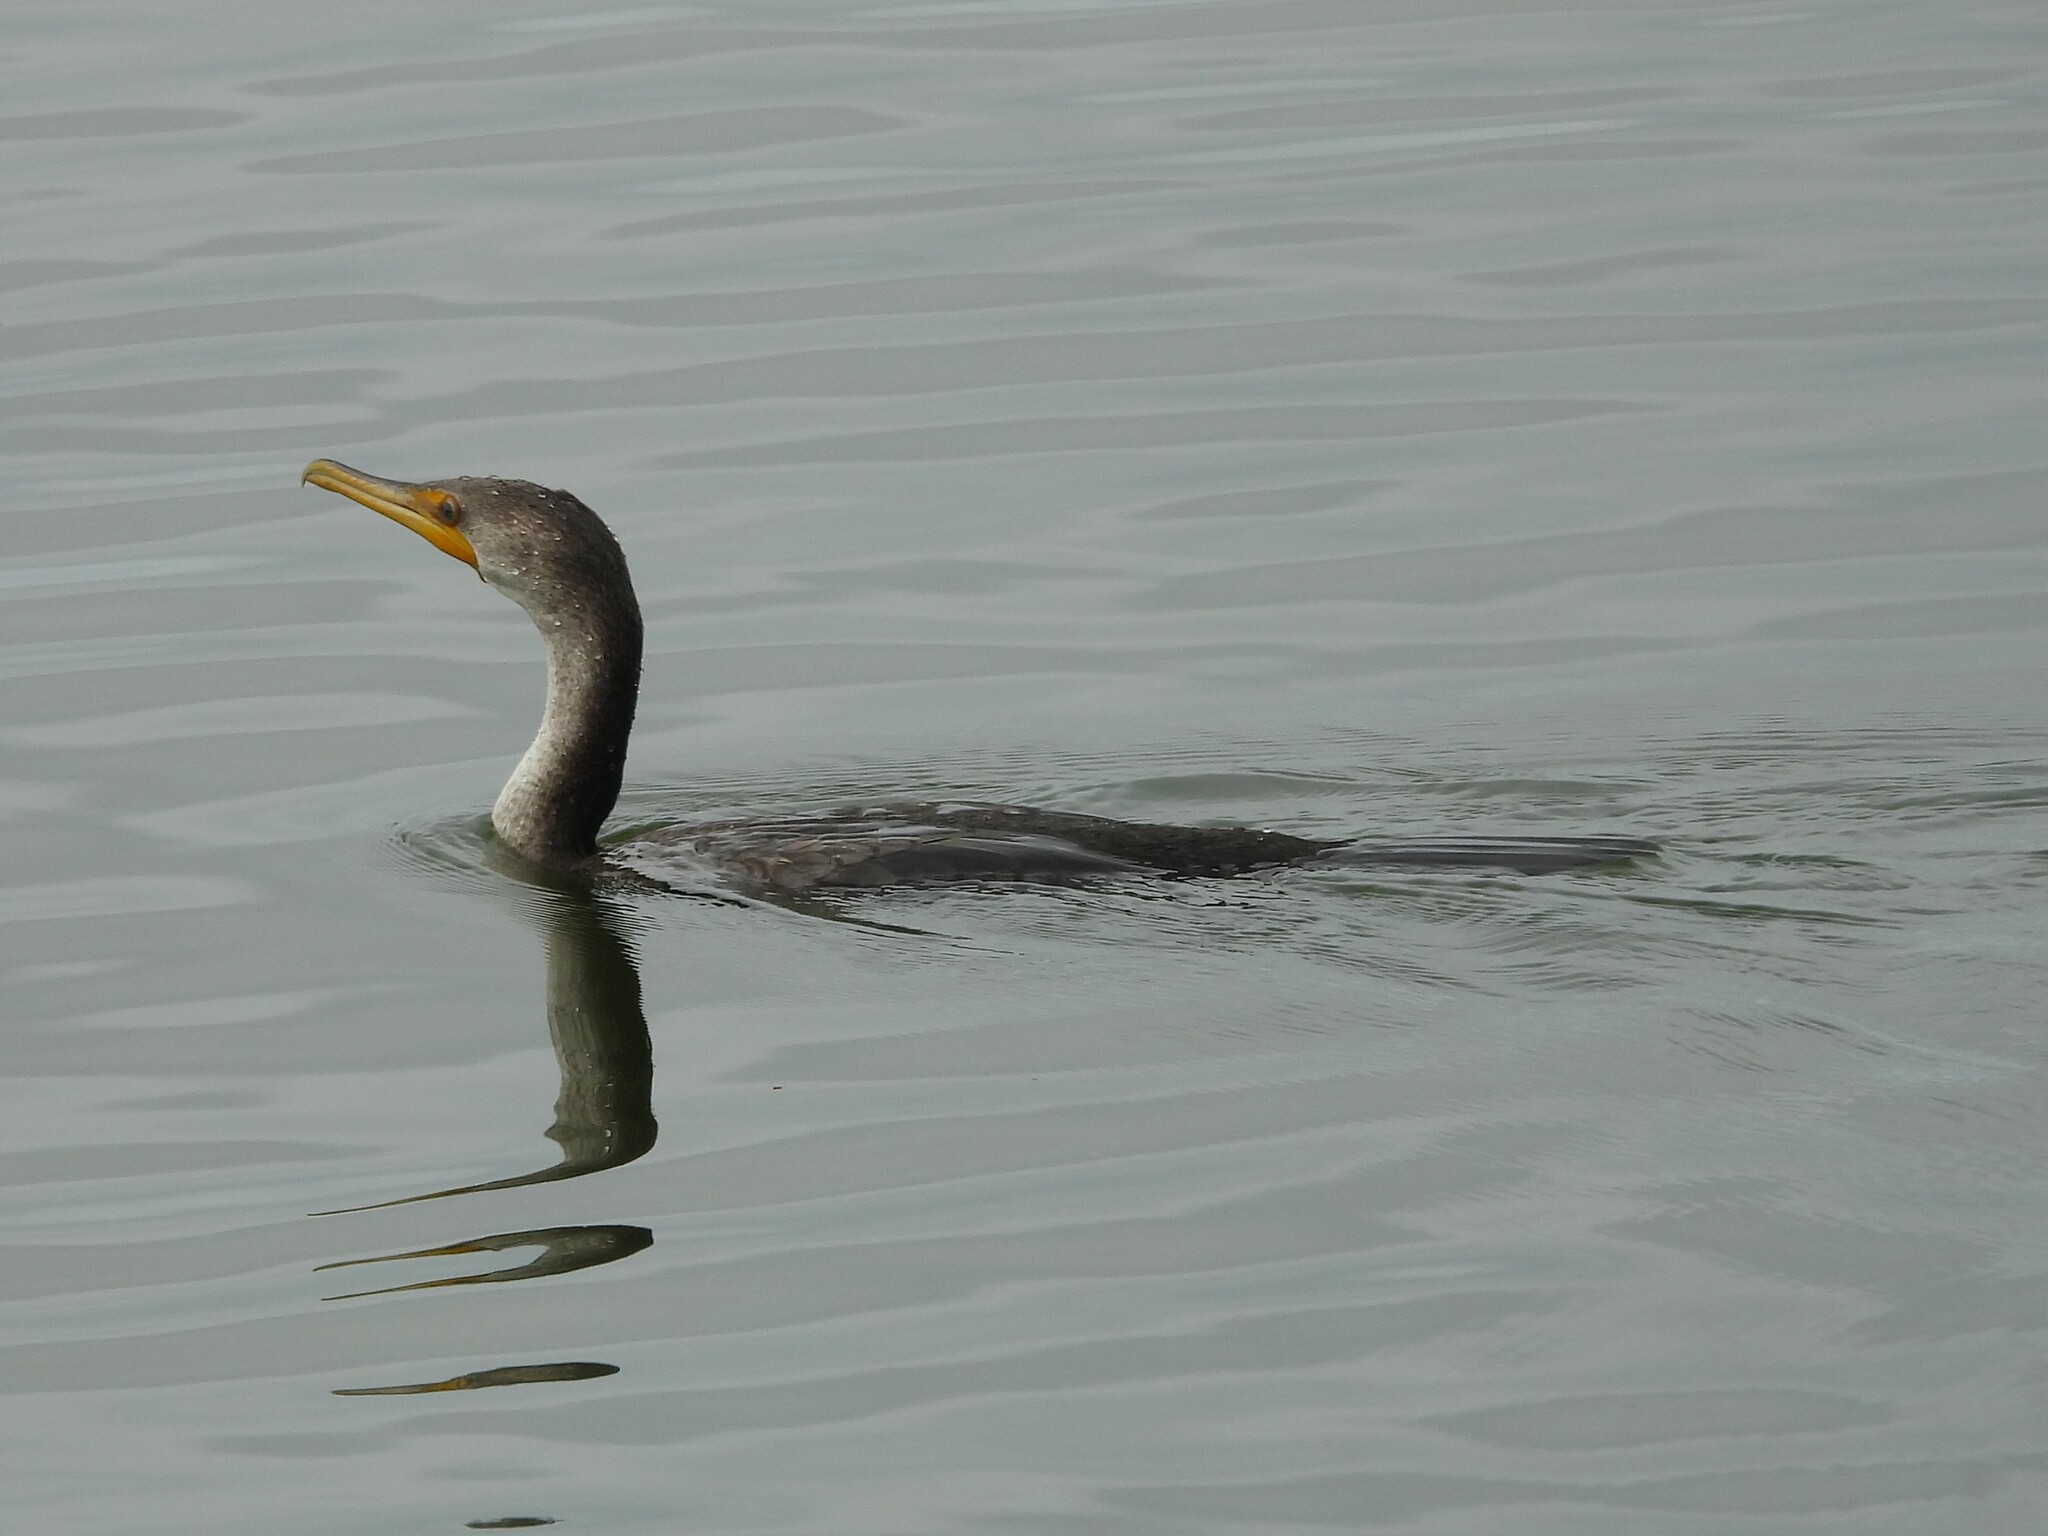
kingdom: Animalia
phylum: Chordata
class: Aves
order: Suliformes
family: Phalacrocoracidae
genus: Phalacrocorax
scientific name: Phalacrocorax auritus
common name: Double-crested cormorant
